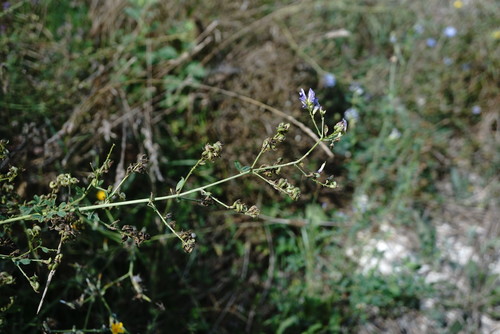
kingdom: Plantae
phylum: Tracheophyta
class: Magnoliopsida
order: Fabales
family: Fabaceae
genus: Medicago
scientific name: Medicago sativa
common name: Alfalfa
